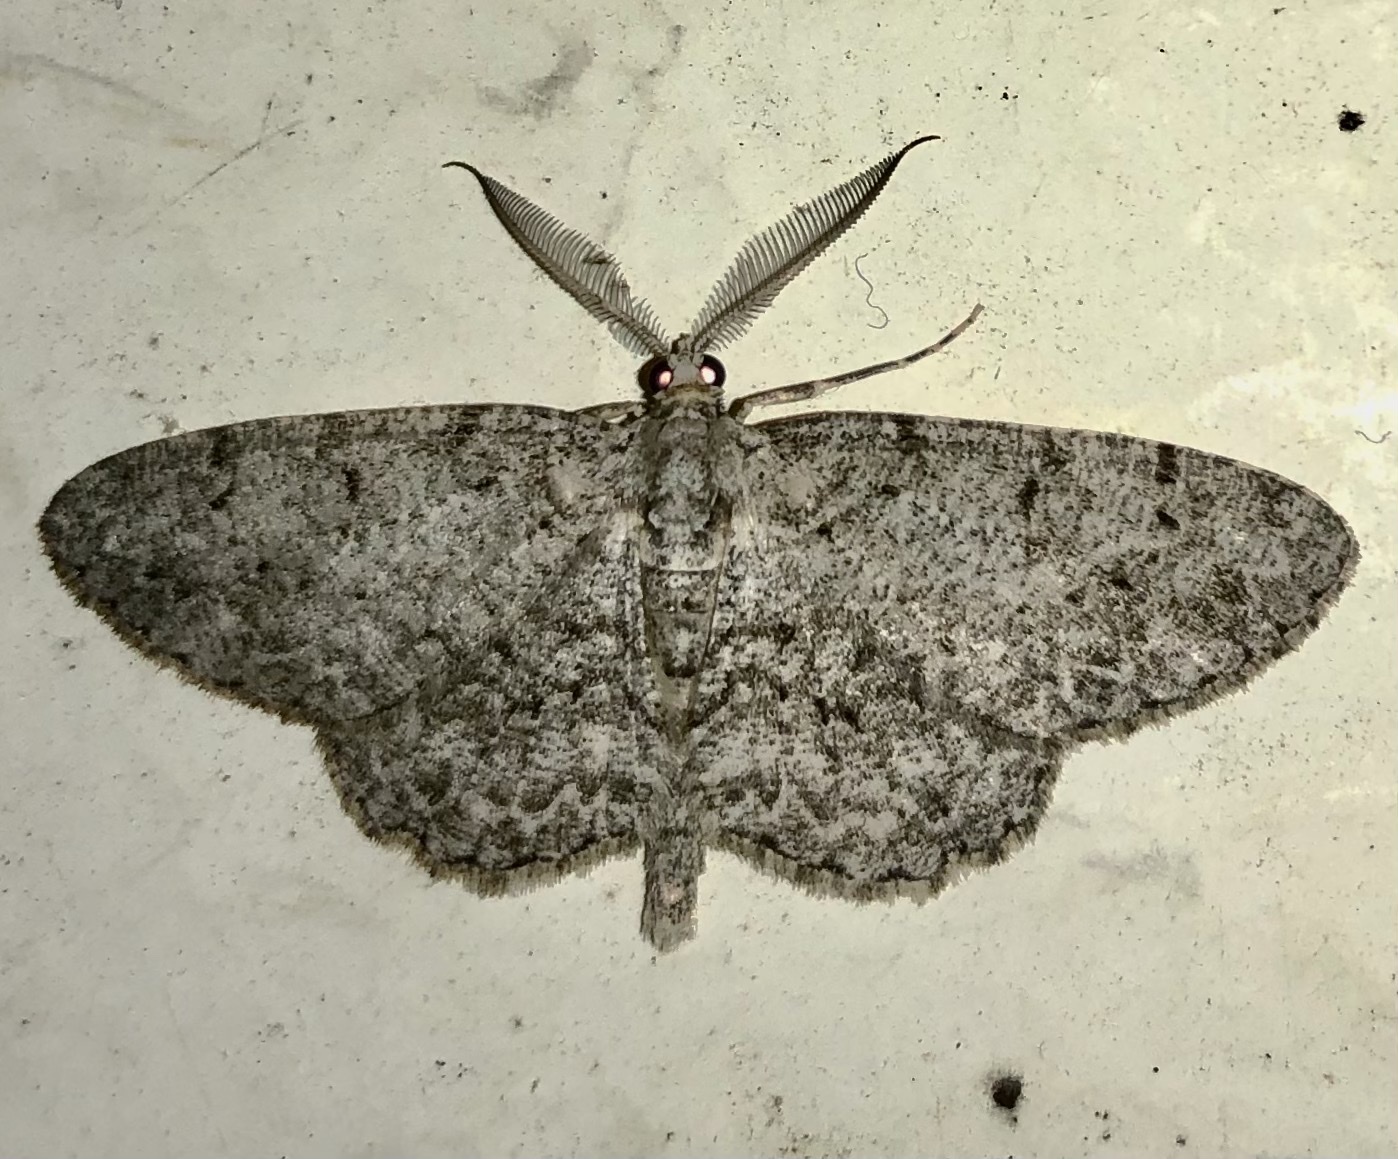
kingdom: Animalia
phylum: Arthropoda
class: Insecta
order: Lepidoptera
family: Geometridae
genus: Protoboarmia
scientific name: Protoboarmia porcelaria
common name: Porcelain gray
